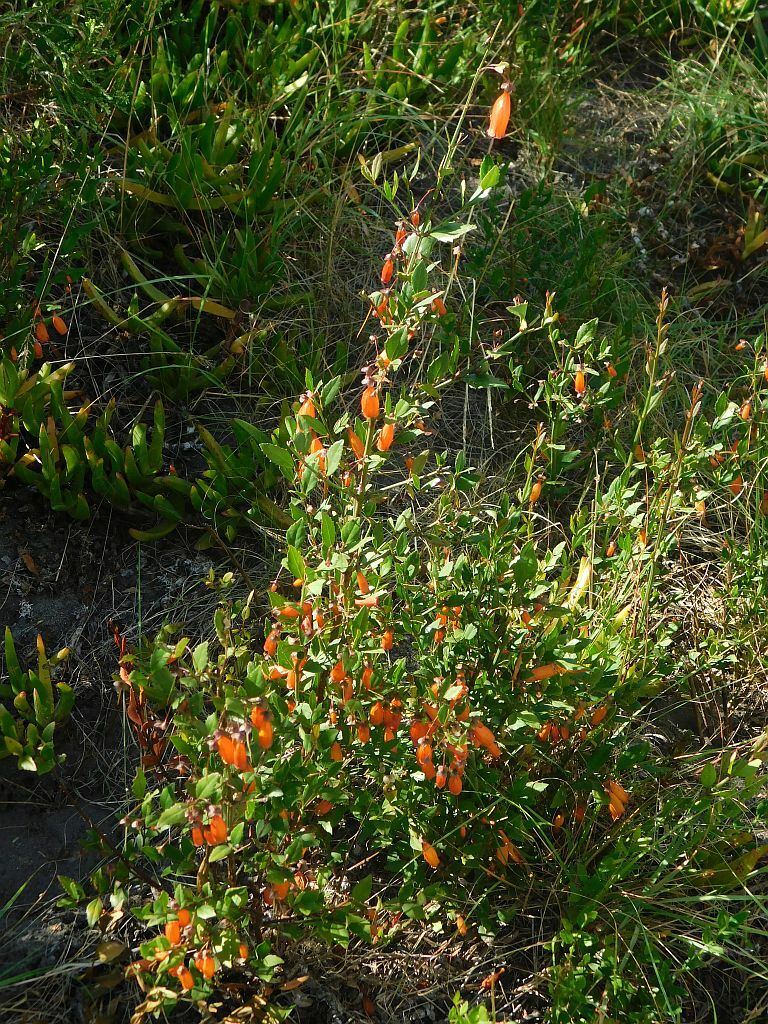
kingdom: Plantae
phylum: Tracheophyta
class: Magnoliopsida
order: Lamiales
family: Stilbaceae
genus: Halleria
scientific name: Halleria elliptica
